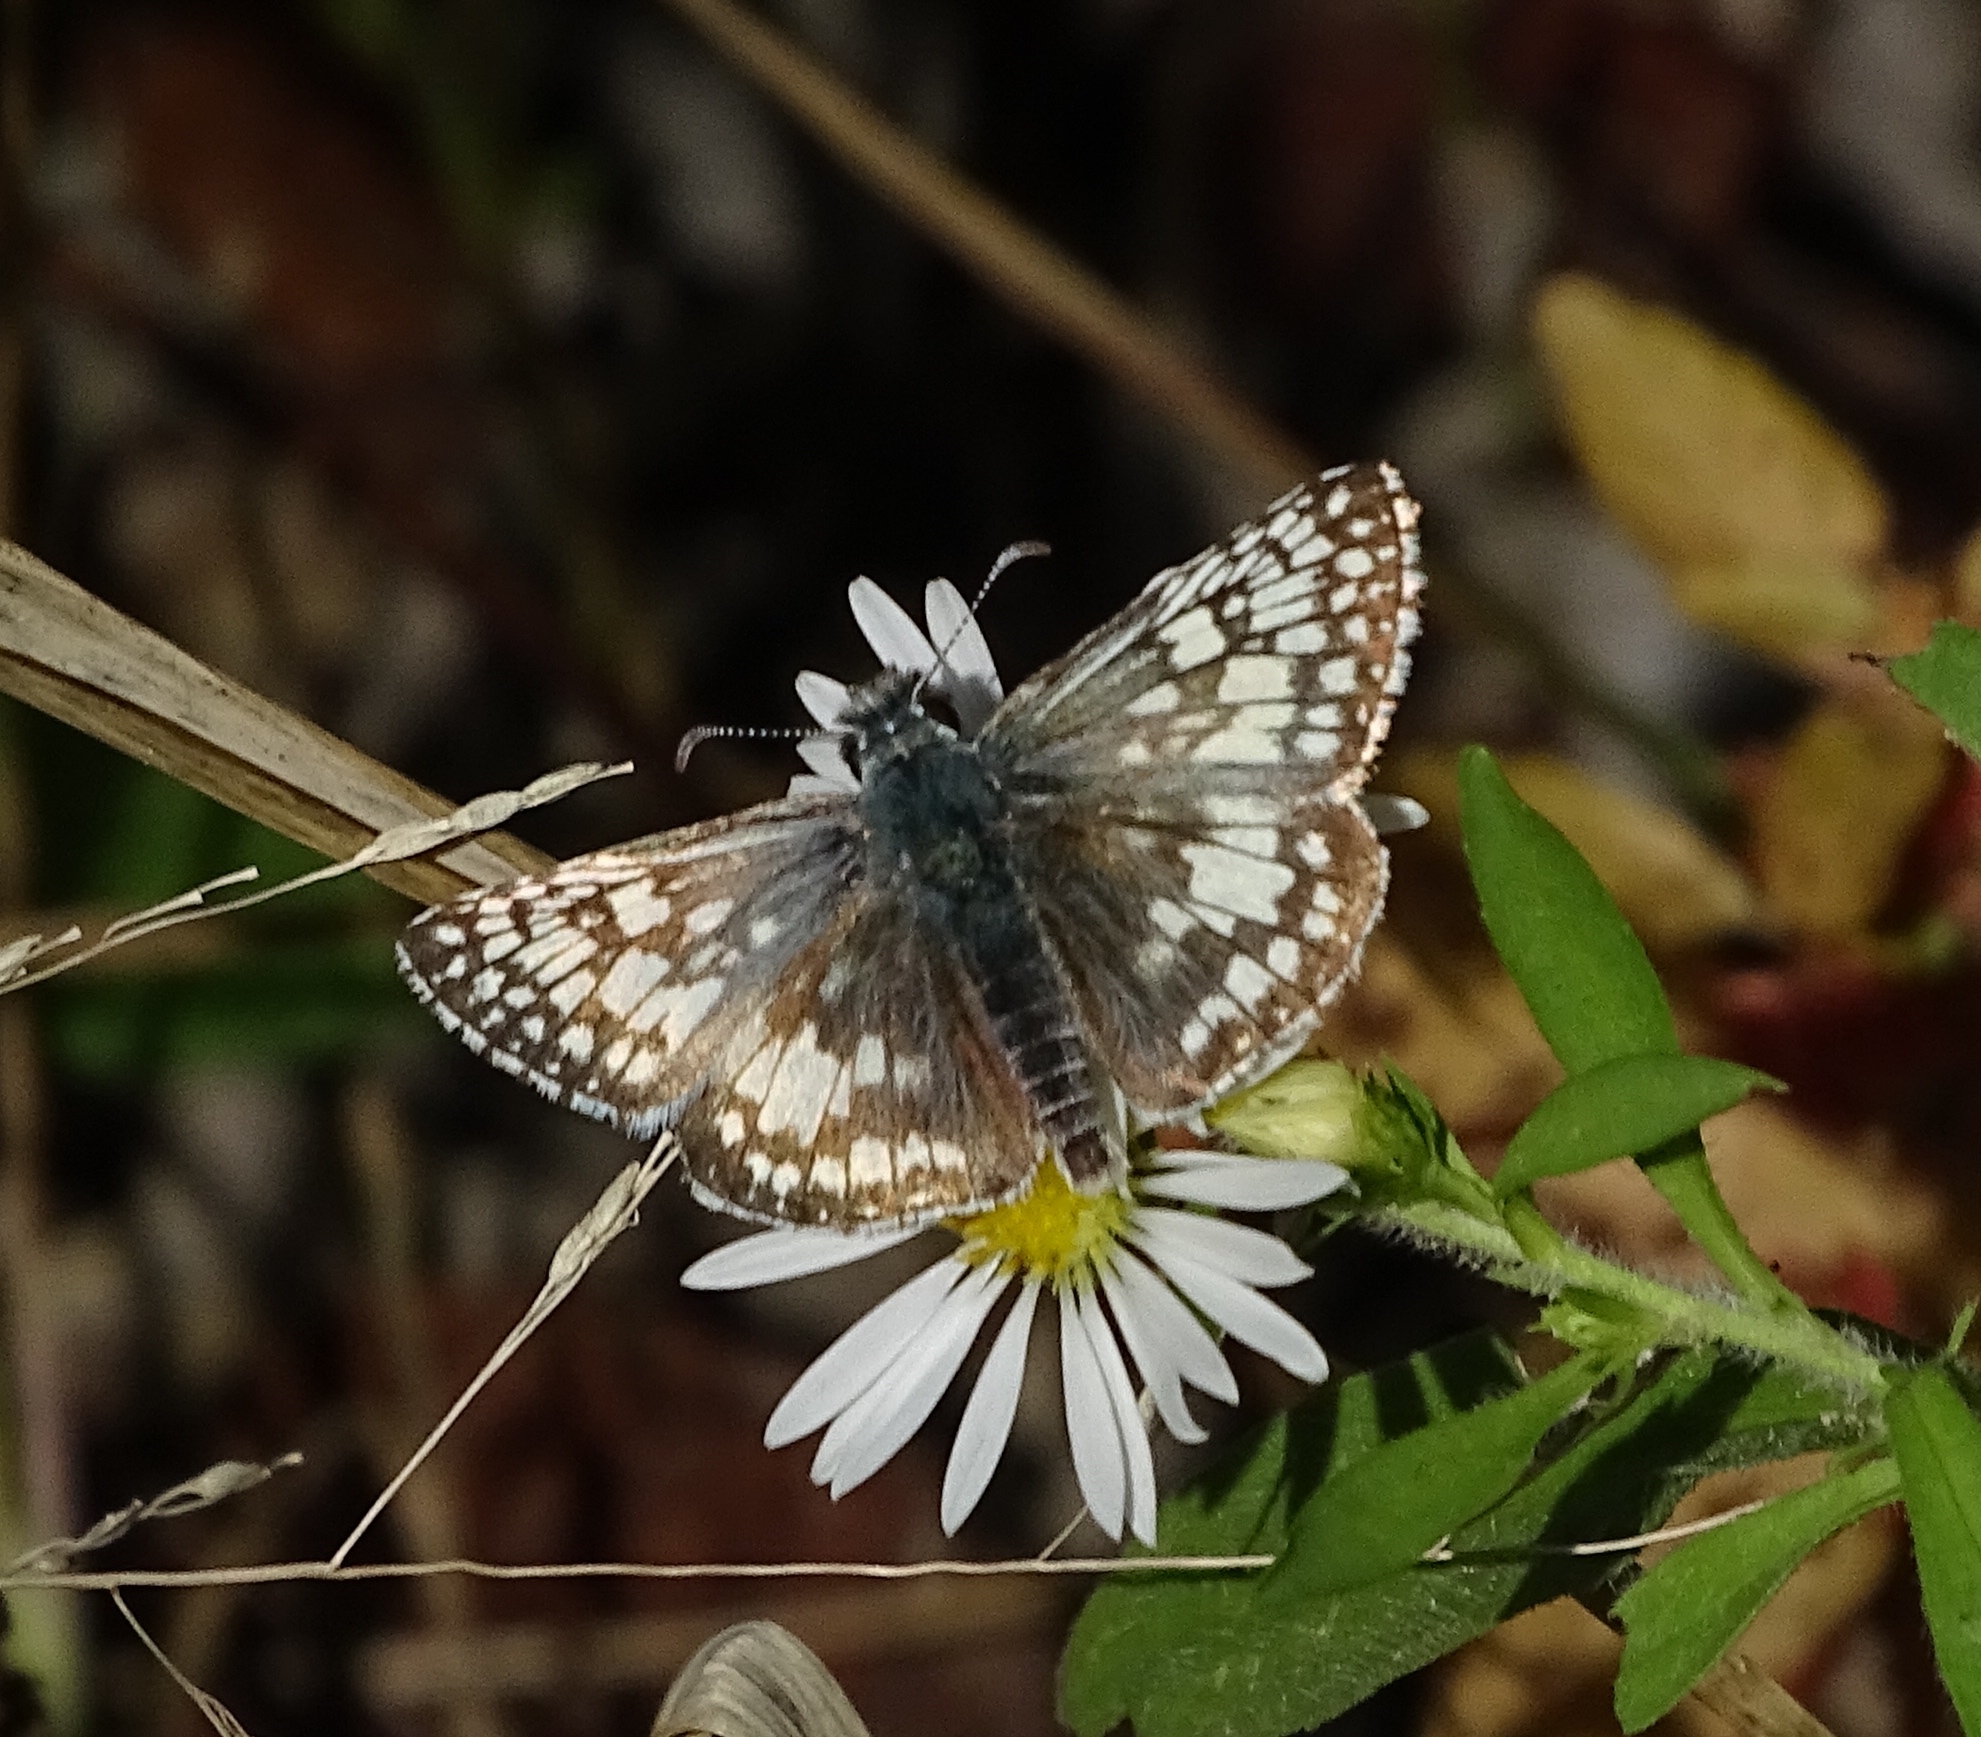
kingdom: Animalia
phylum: Arthropoda
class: Insecta
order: Lepidoptera
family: Hesperiidae
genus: Burnsius
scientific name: Burnsius communis
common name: Common checkered-skipper
